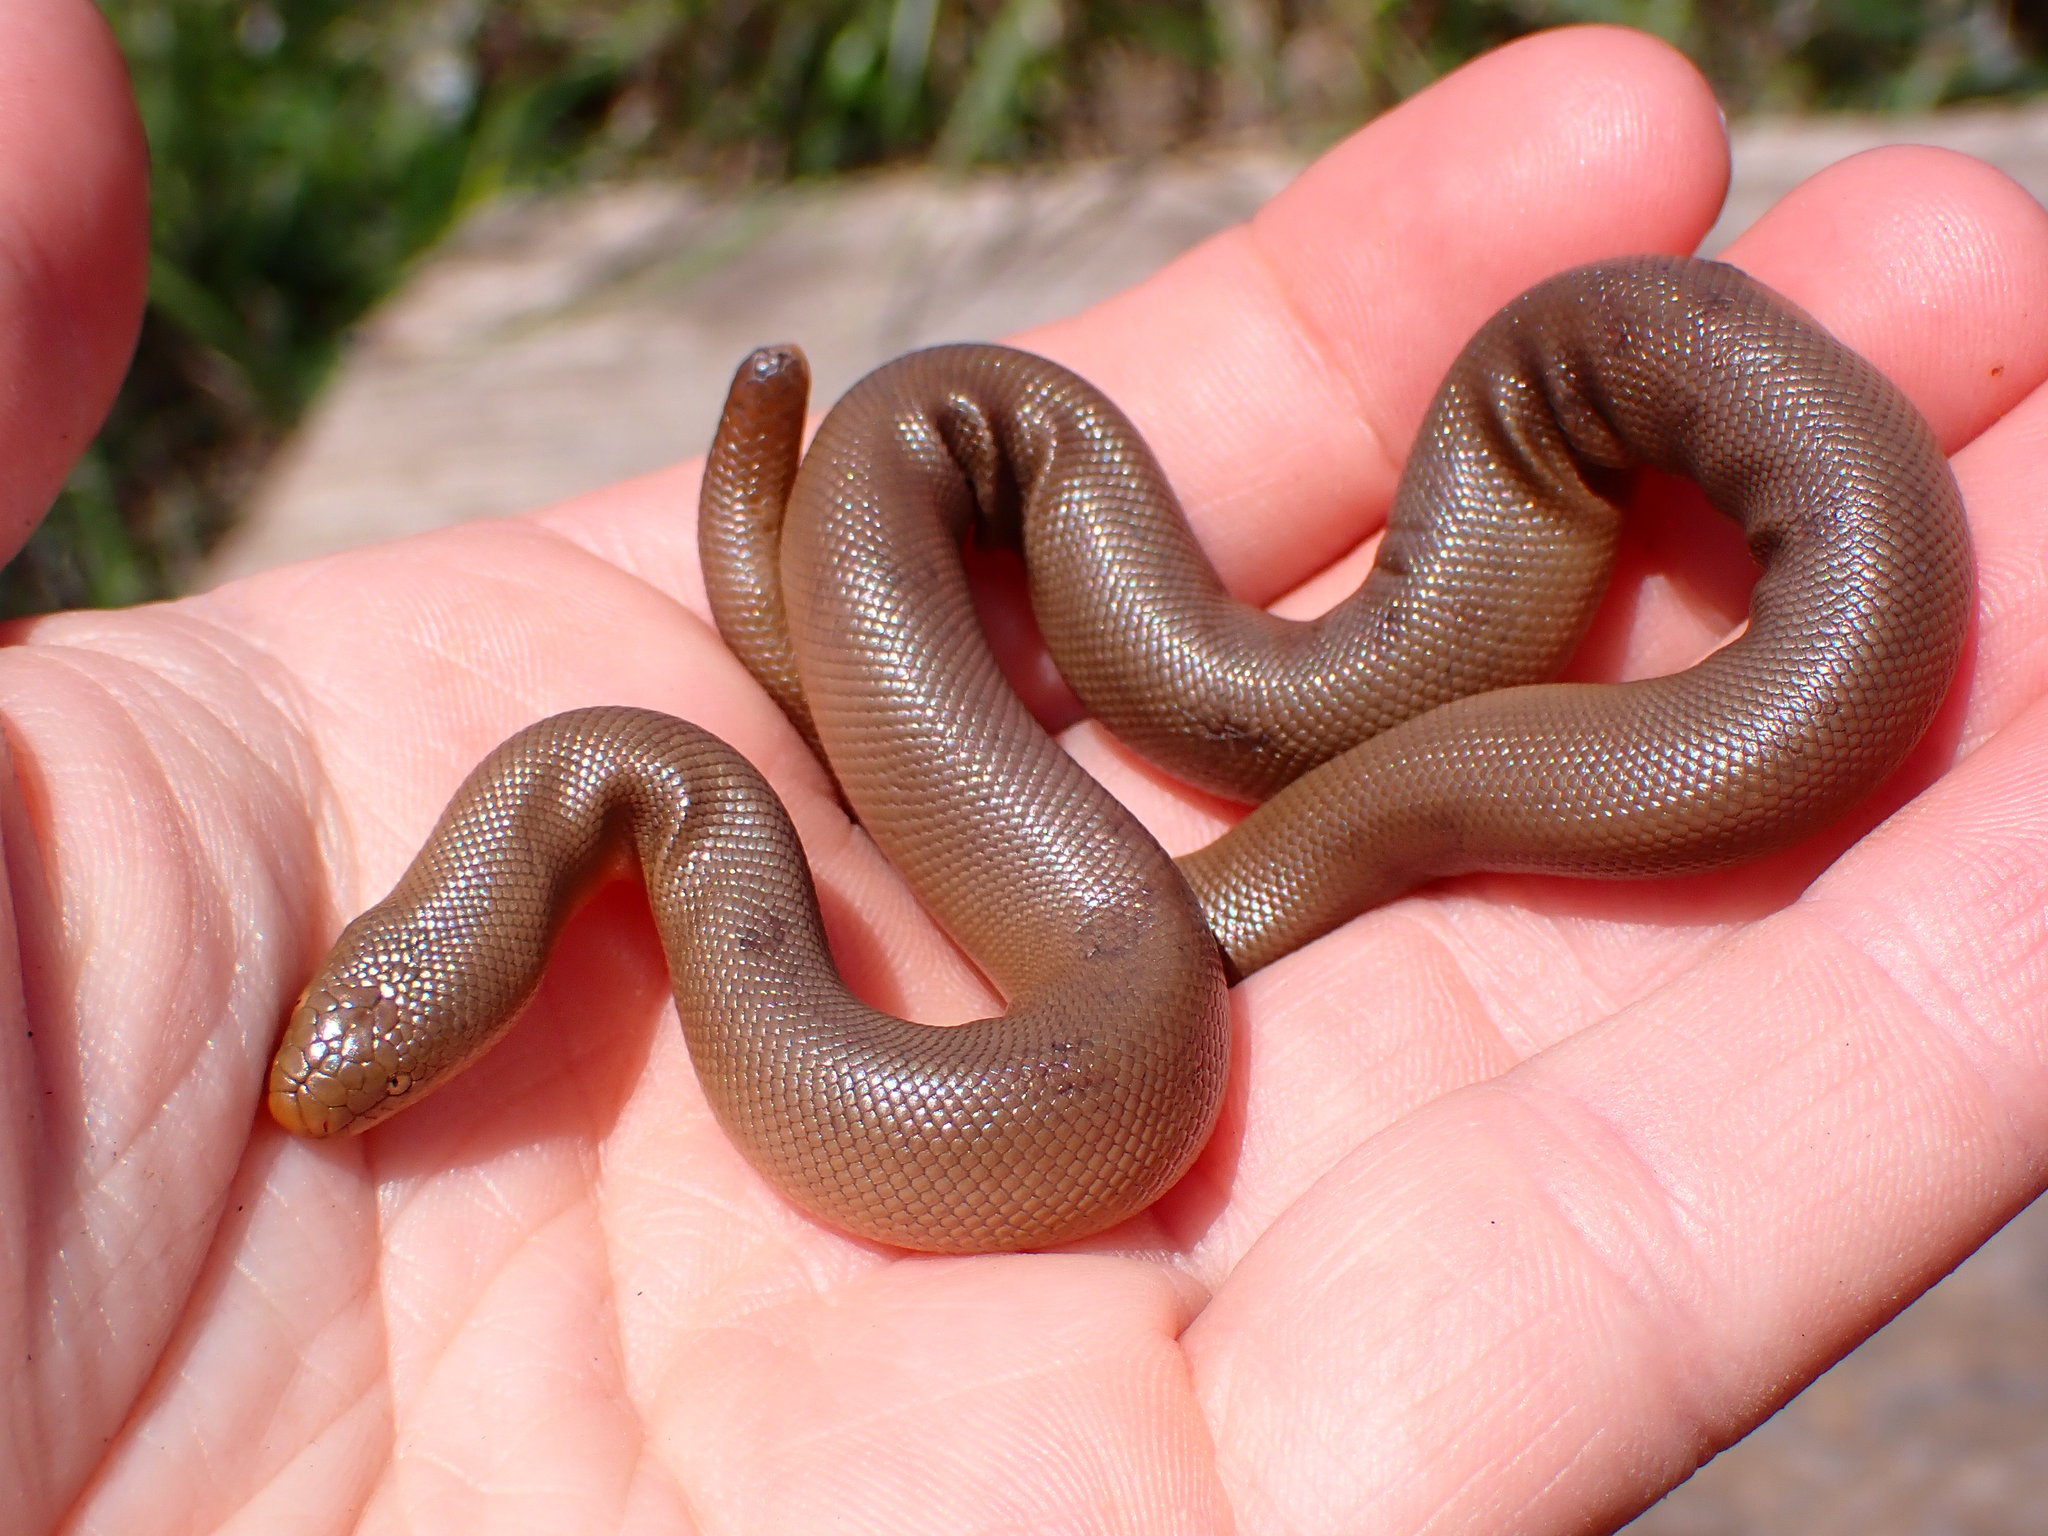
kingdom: Animalia
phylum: Chordata
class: Squamata
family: Boidae
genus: Charina
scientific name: Charina bottae
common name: Northern rubber boa
